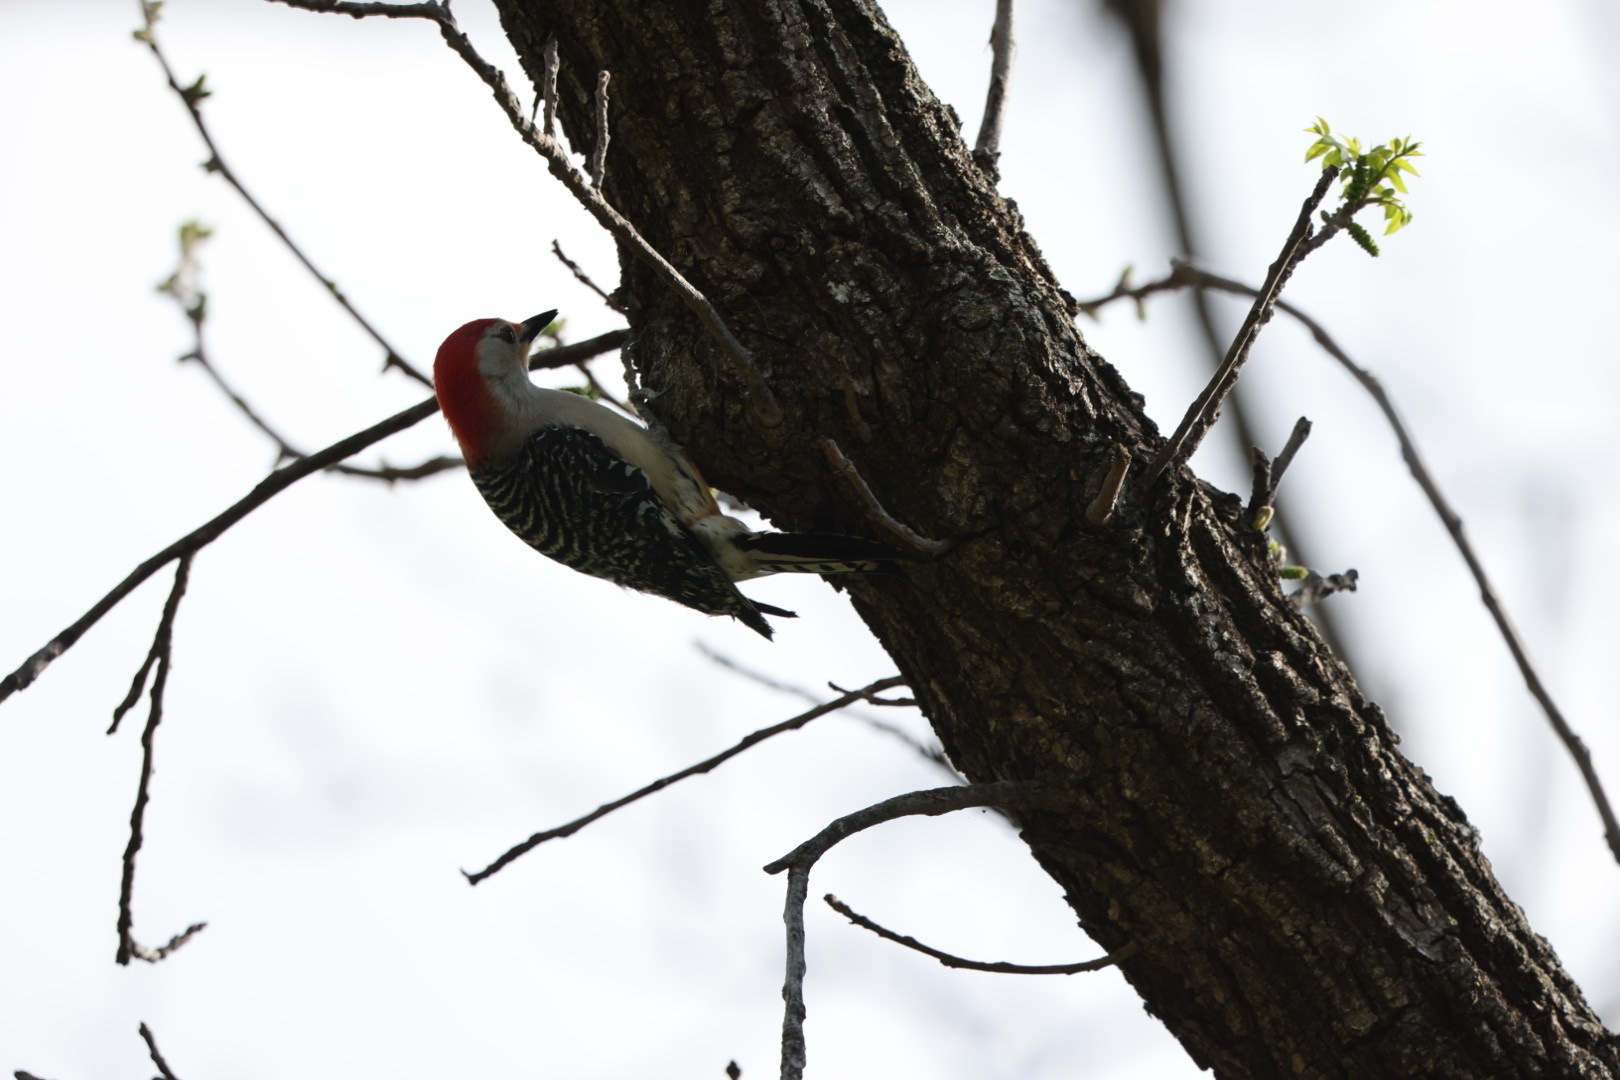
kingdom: Animalia
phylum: Chordata
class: Aves
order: Piciformes
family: Picidae
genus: Melanerpes
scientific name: Melanerpes carolinus
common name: Red-bellied woodpecker
